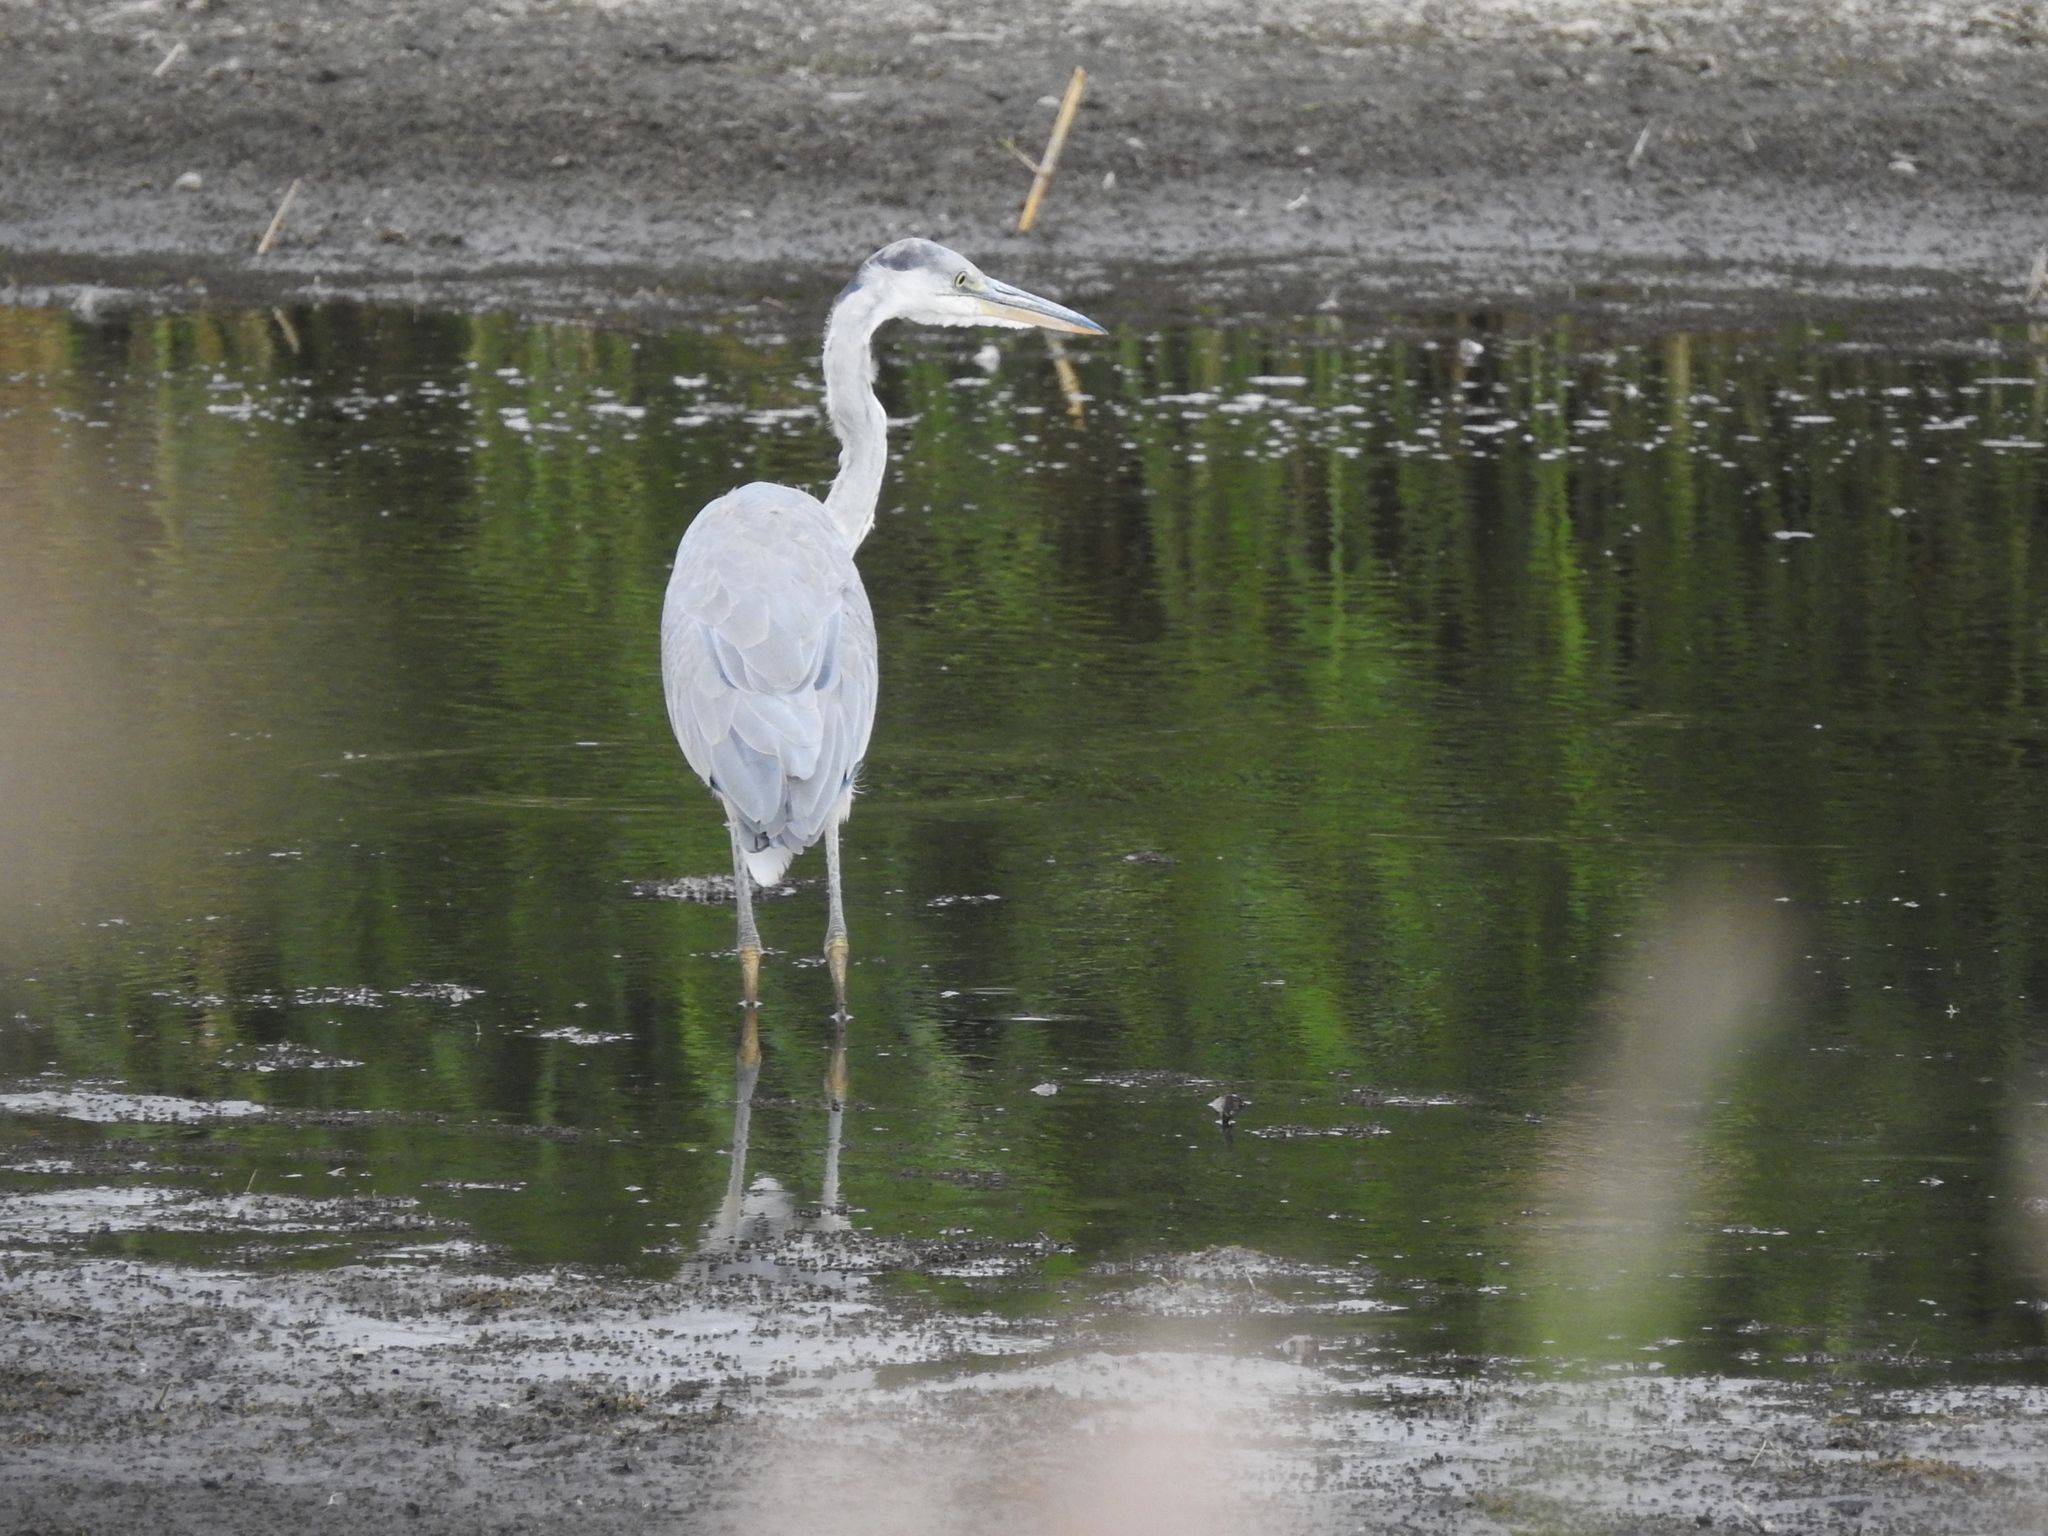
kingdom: Animalia
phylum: Chordata
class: Aves
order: Pelecaniformes
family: Ardeidae
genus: Ardea
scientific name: Ardea cinerea
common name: Grey heron
